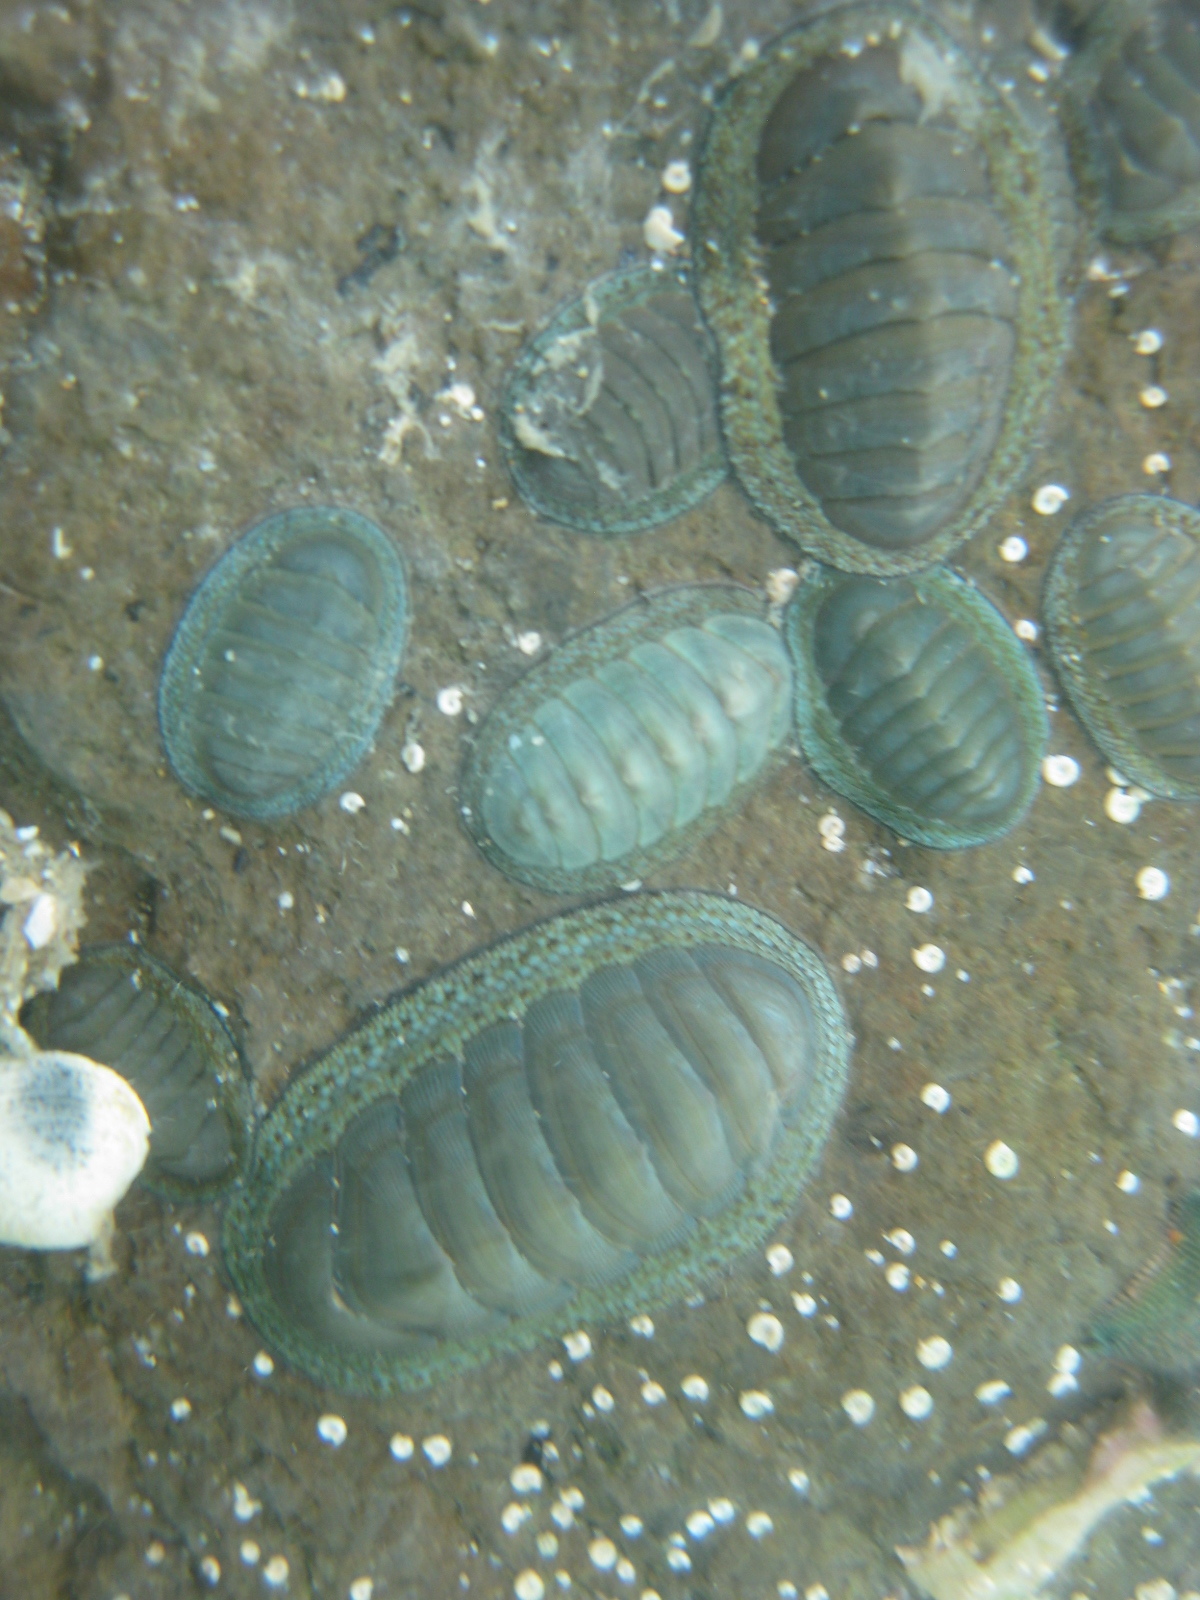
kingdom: Animalia
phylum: Mollusca
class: Polyplacophora
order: Chitonida
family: Chitonidae
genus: Chiton
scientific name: Chiton glaucus
